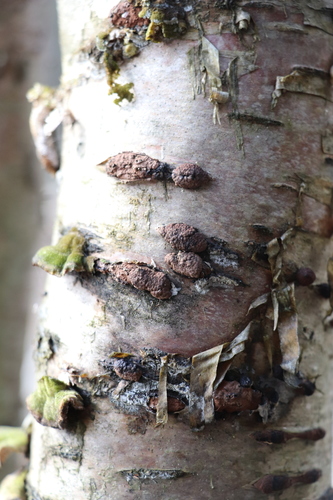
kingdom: Fungi
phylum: Ascomycota
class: Sordariomycetes
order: Xylariales
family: Hypoxylaceae
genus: Jackrogersella
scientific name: Jackrogersella multiformis
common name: Birch woodwart
